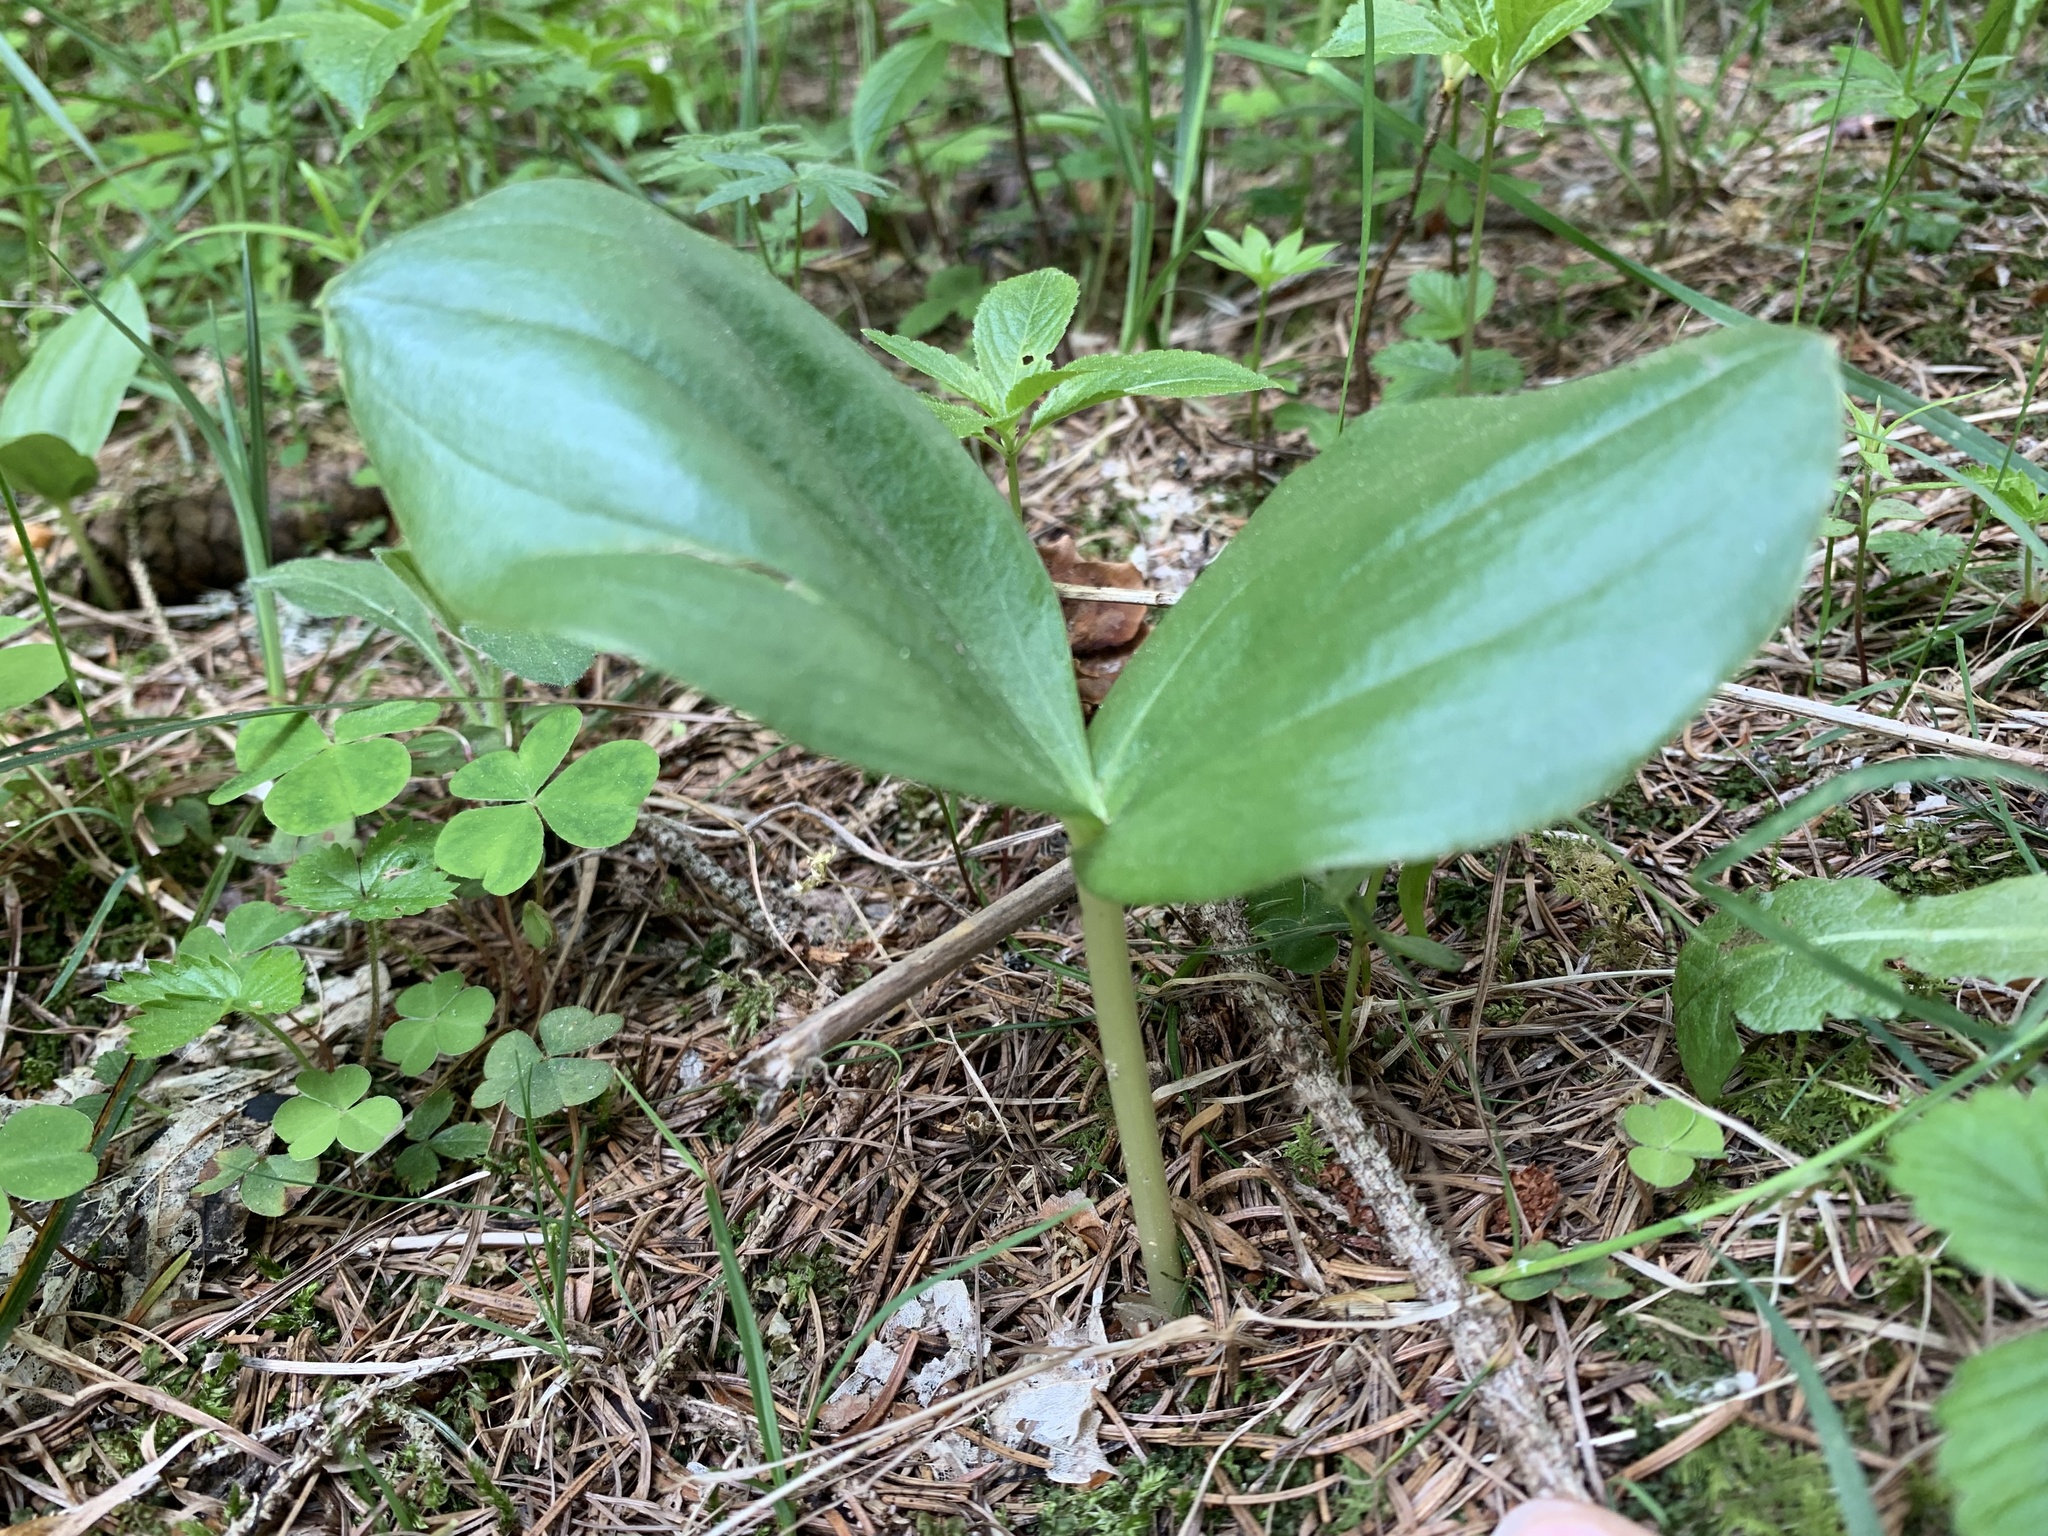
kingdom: Plantae
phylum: Tracheophyta
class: Liliopsida
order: Asparagales
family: Orchidaceae
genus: Neottia
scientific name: Neottia ovata
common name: Common twayblade
